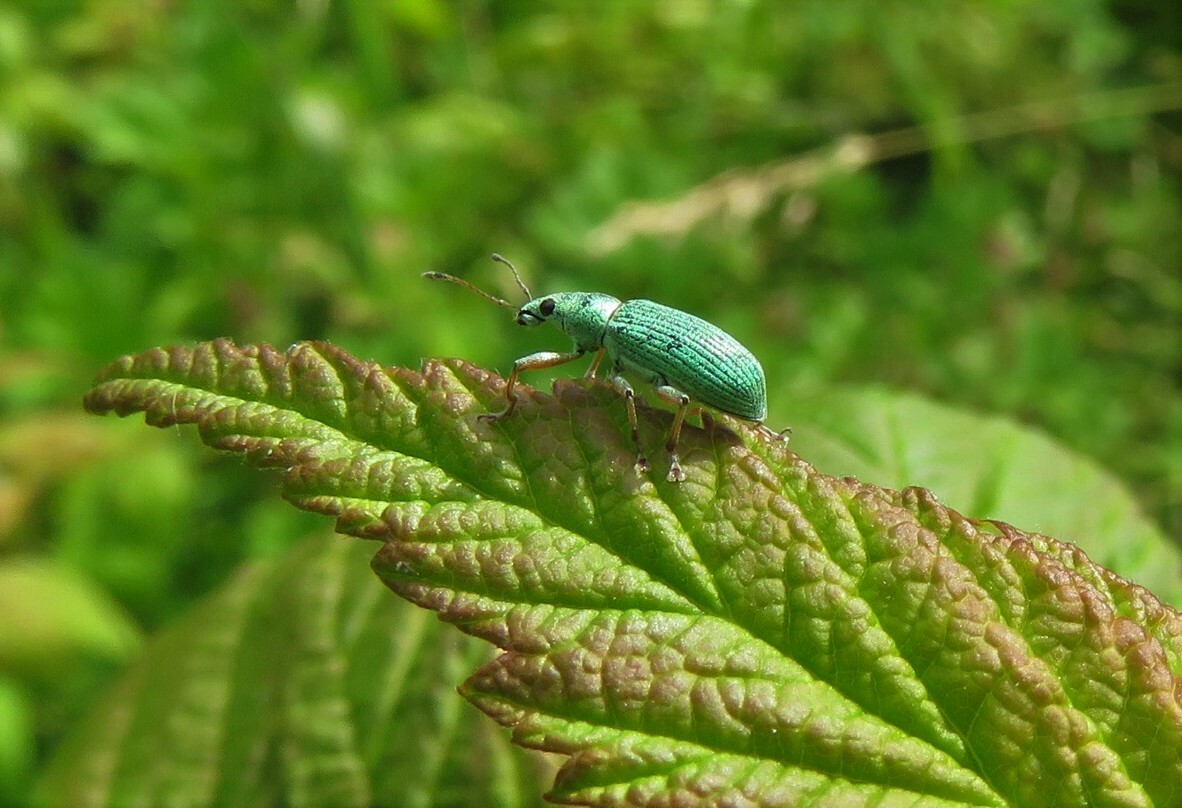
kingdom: Animalia
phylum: Arthropoda
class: Insecta
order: Coleoptera
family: Curculionidae
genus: Polydrusus
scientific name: Polydrusus formosus
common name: Weevil
